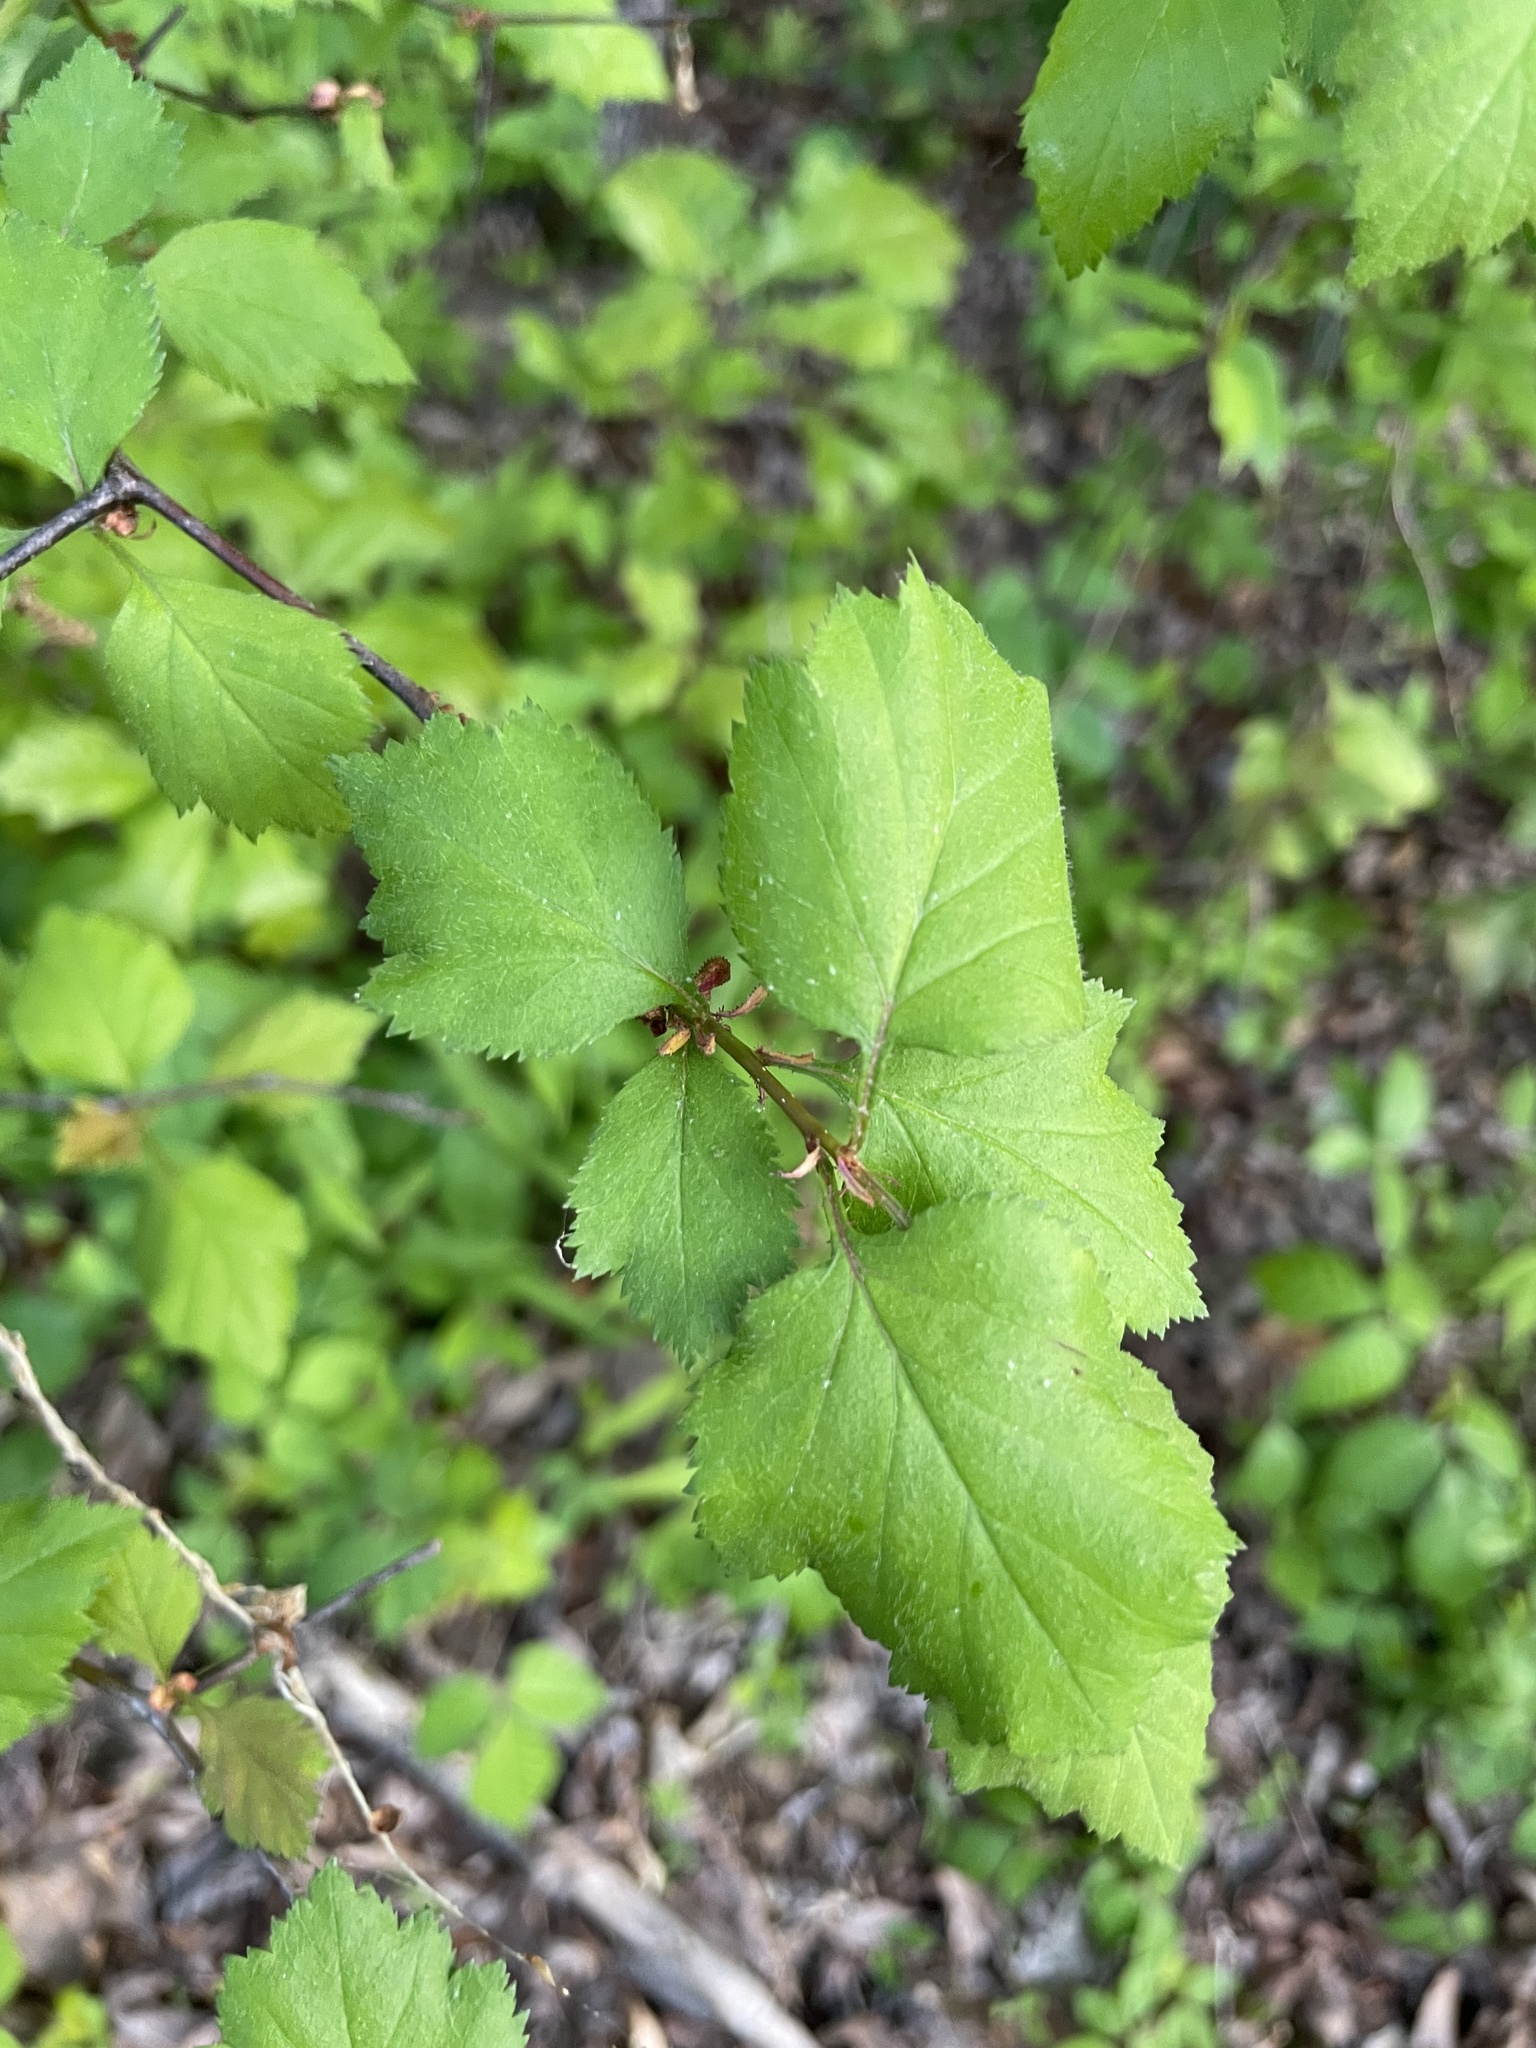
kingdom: Plantae
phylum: Tracheophyta
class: Magnoliopsida
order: Rosales
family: Rosaceae
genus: Crataegus
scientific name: Crataegus intricata
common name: Biltmore hawthorn
